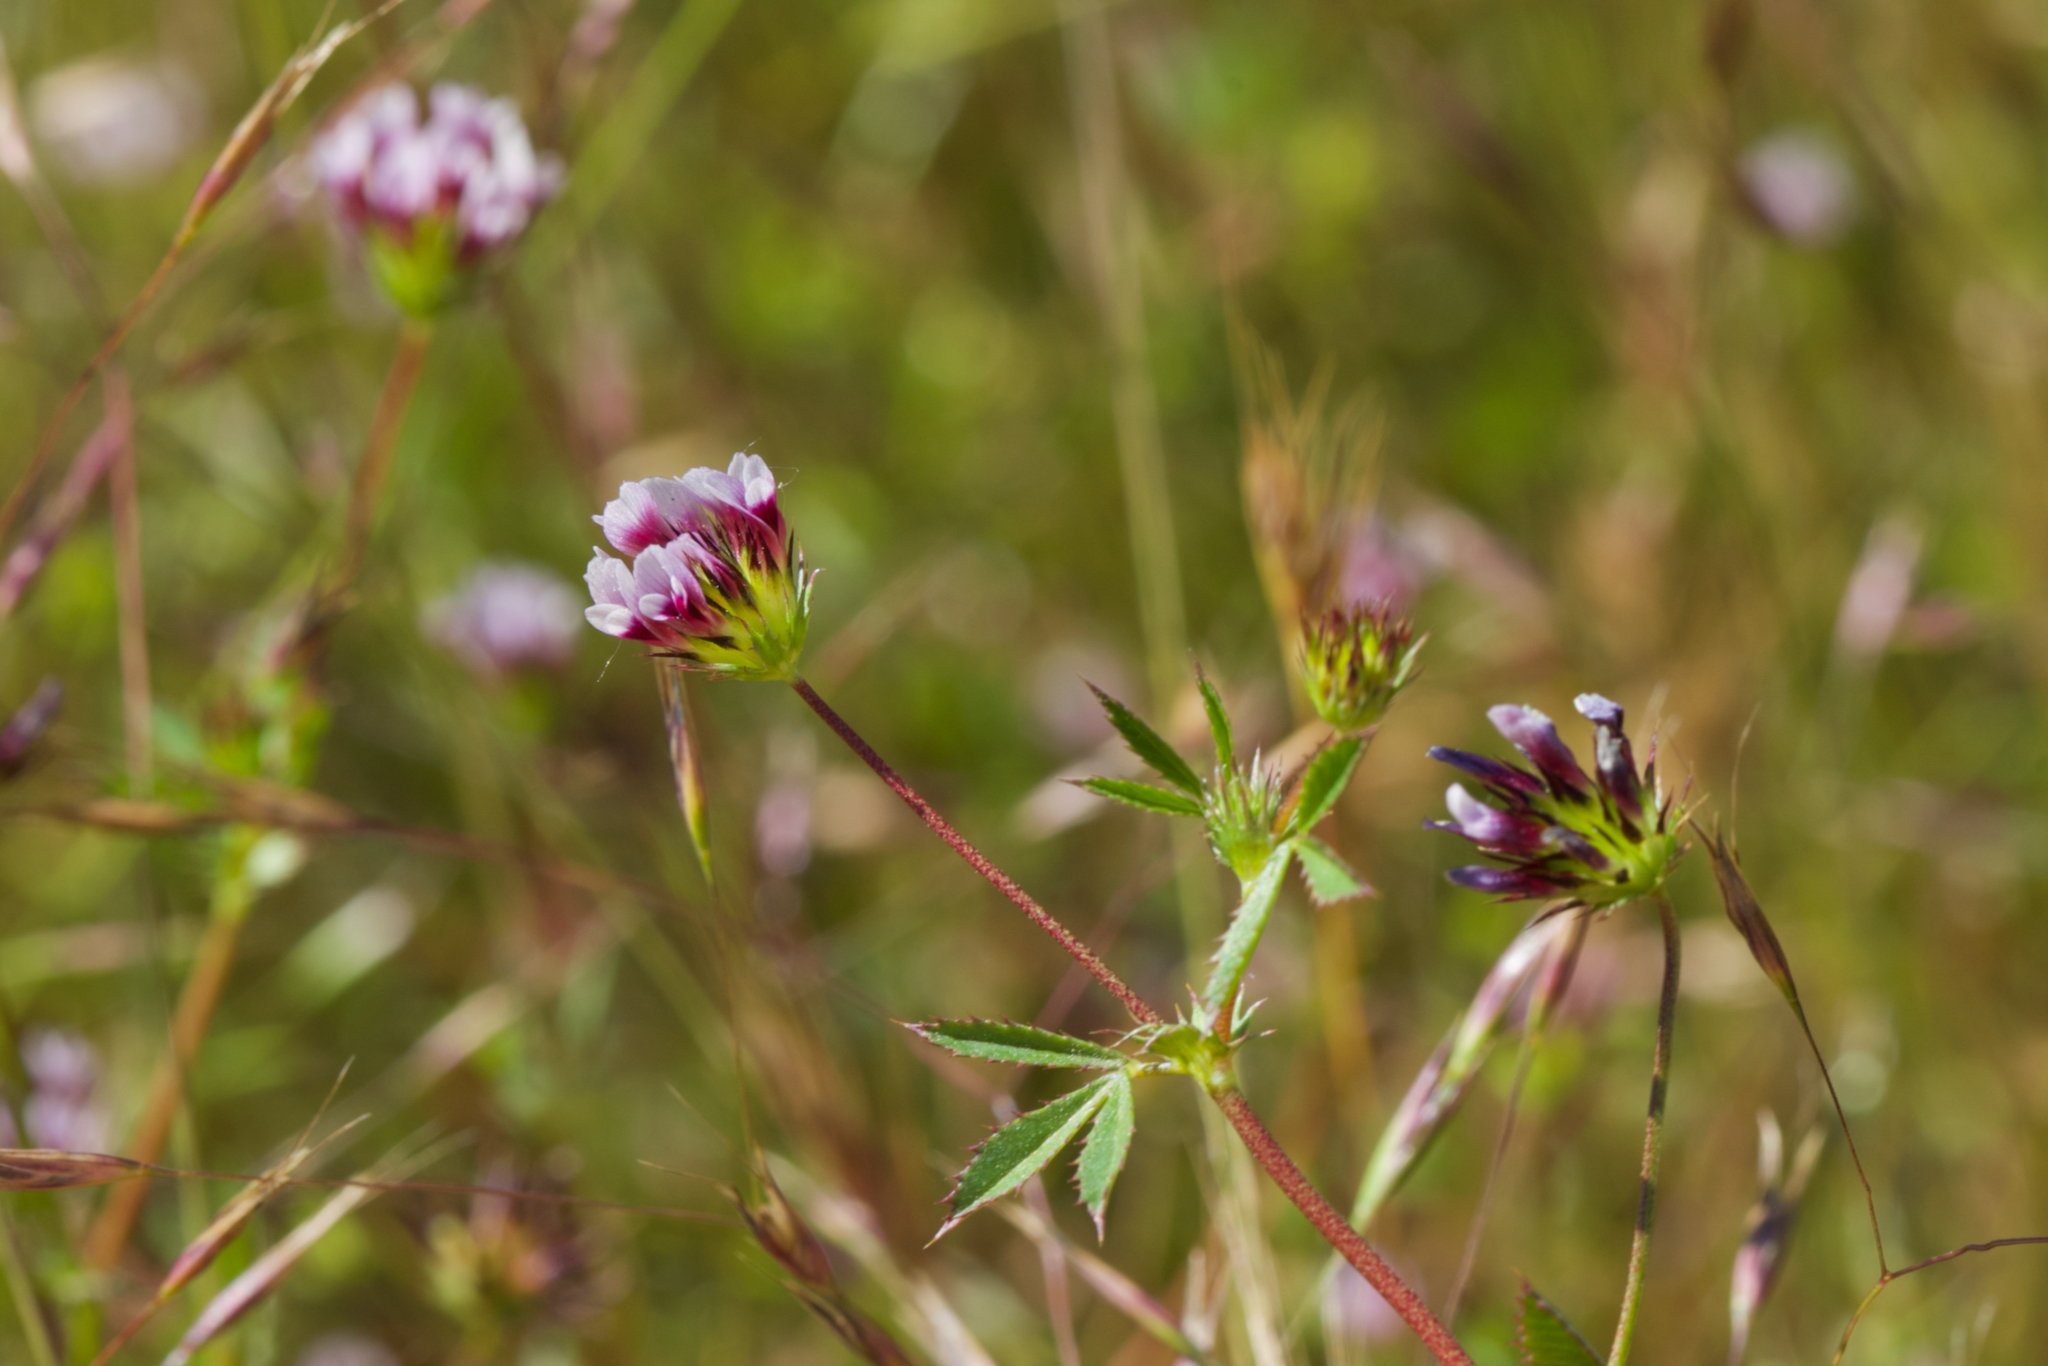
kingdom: Plantae
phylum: Tracheophyta
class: Magnoliopsida
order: Fabales
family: Fabaceae
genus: Trifolium
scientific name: Trifolium variegatum
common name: Whitetip clover
